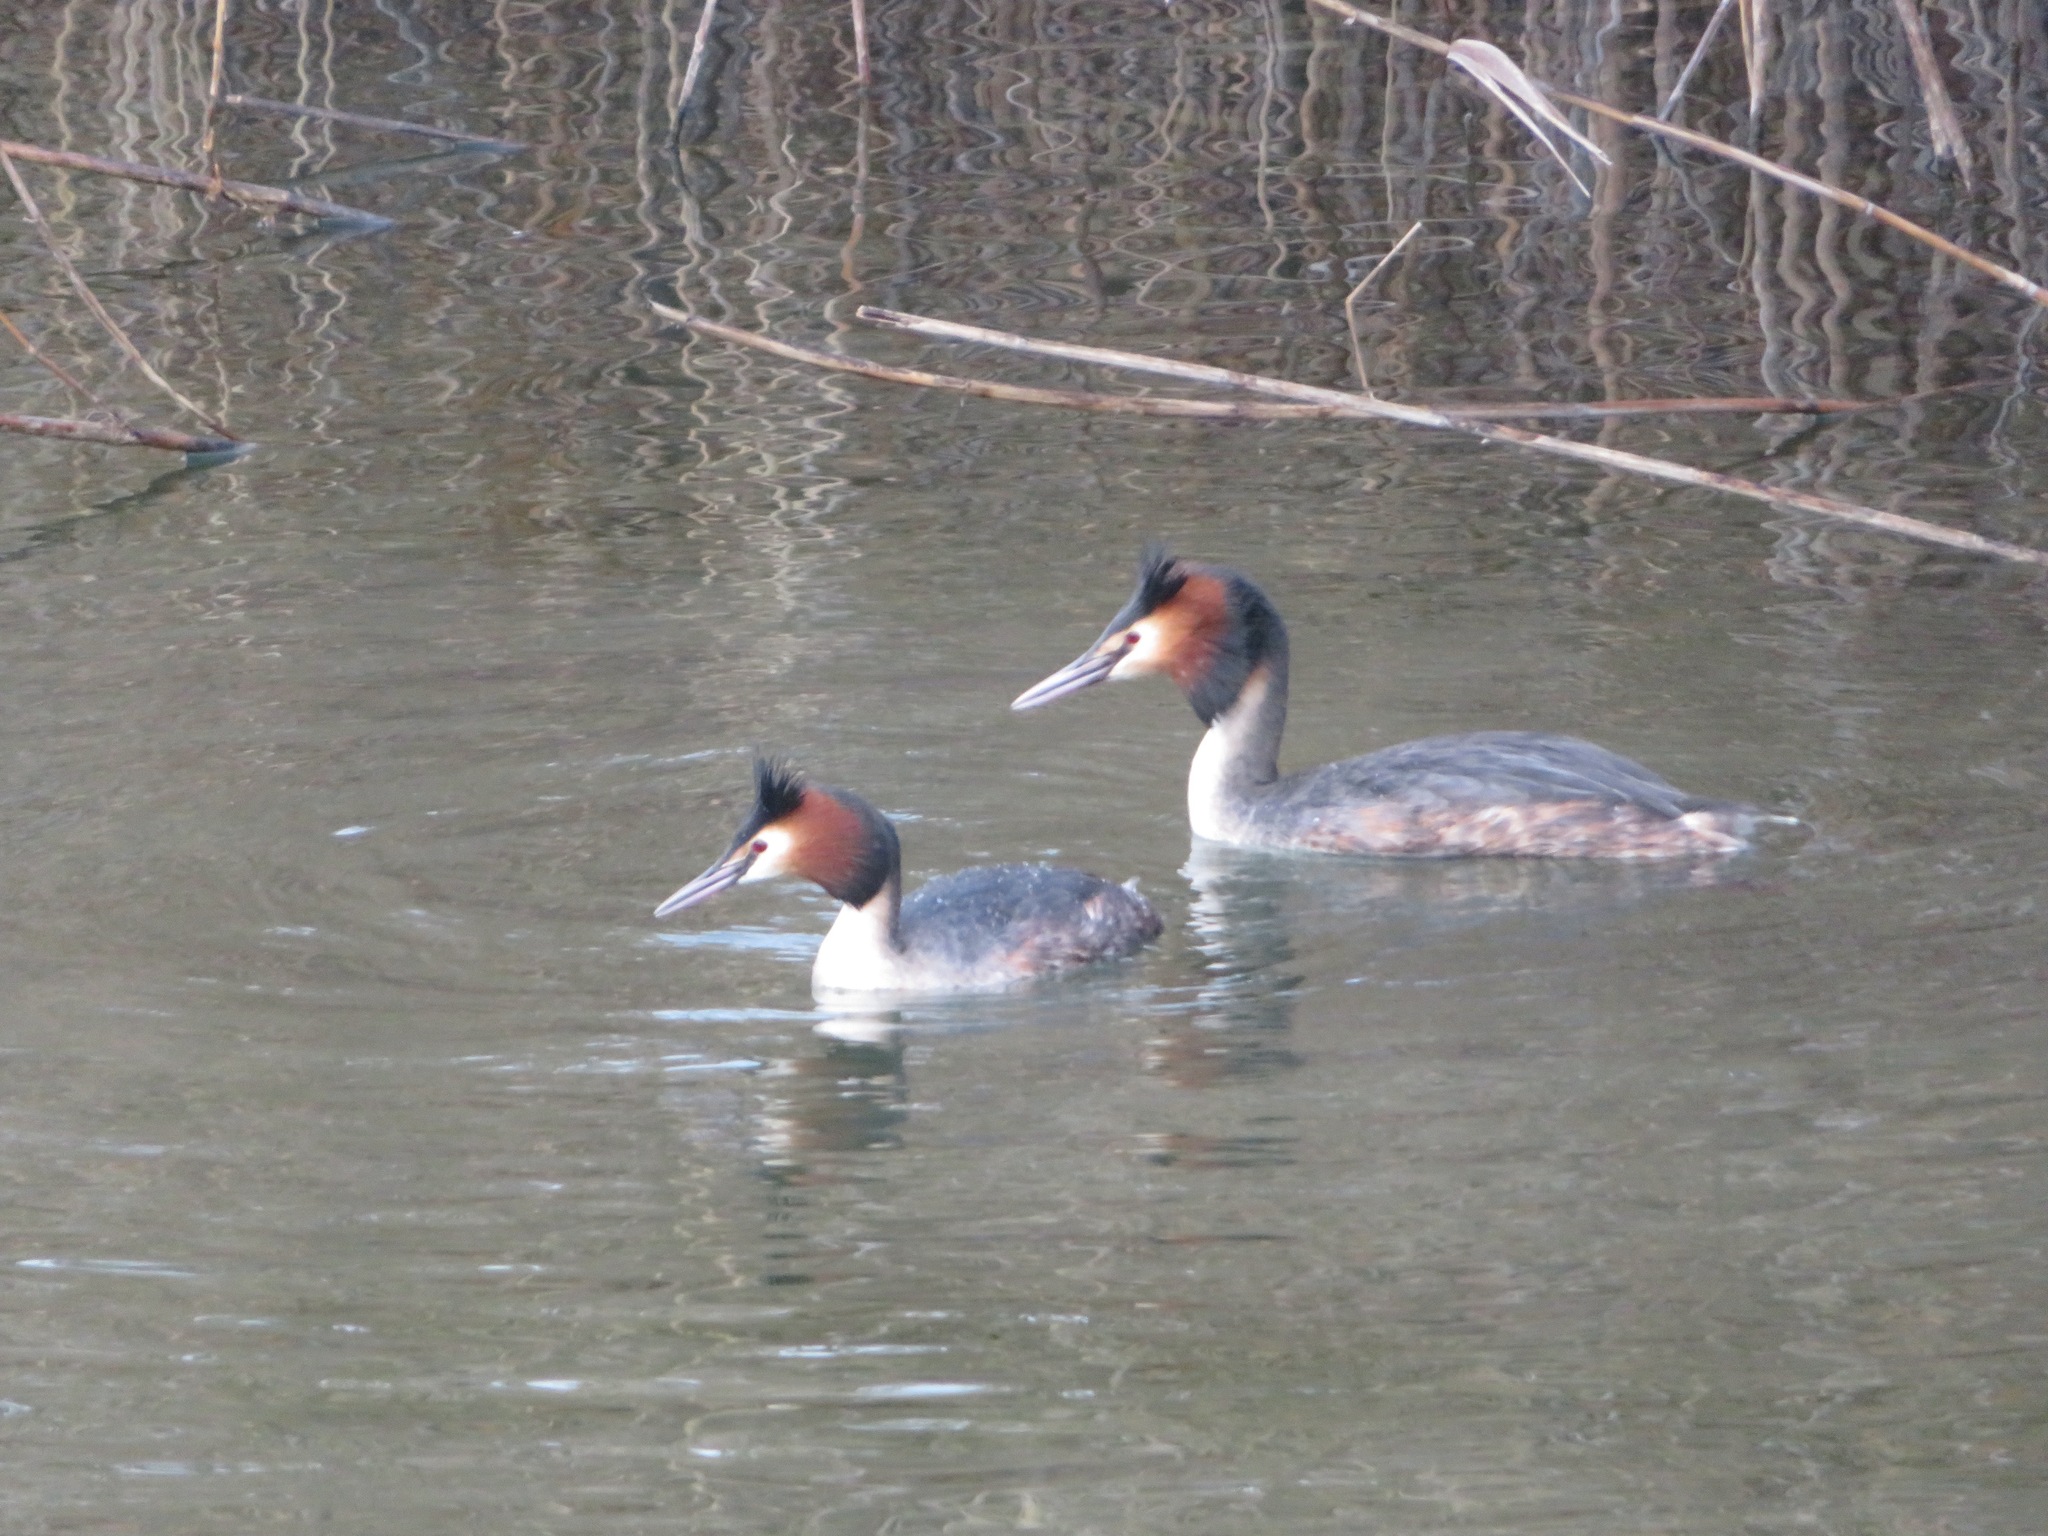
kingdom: Animalia
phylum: Chordata
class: Aves
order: Podicipediformes
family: Podicipedidae
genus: Podiceps
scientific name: Podiceps cristatus
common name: Great crested grebe
